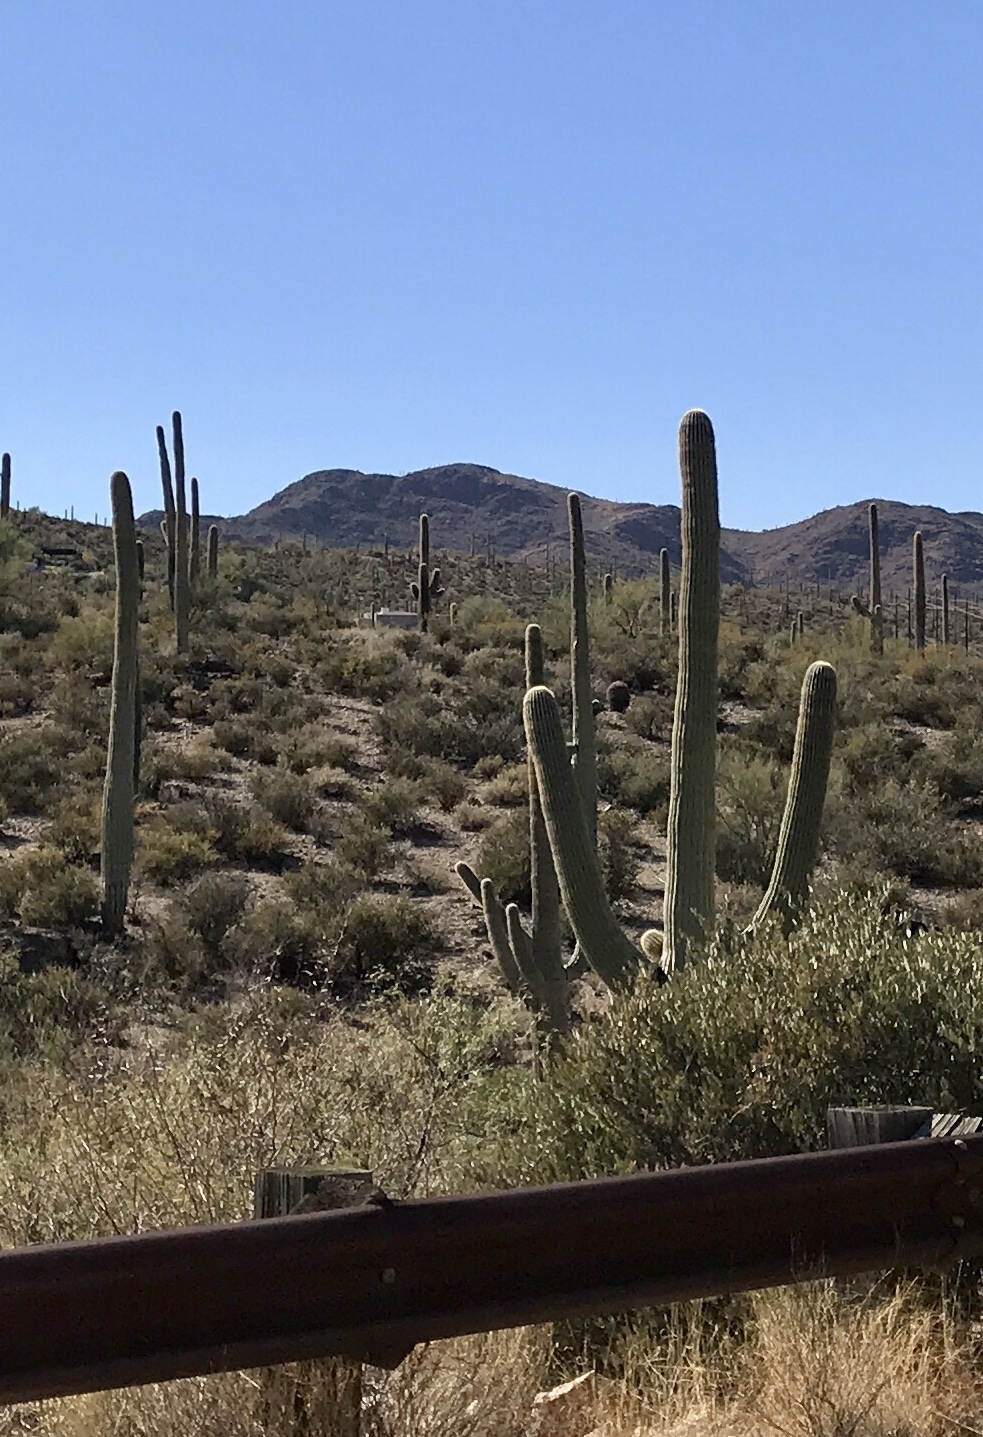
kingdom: Plantae
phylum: Tracheophyta
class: Magnoliopsida
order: Caryophyllales
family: Cactaceae
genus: Carnegiea
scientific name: Carnegiea gigantea
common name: Saguaro
